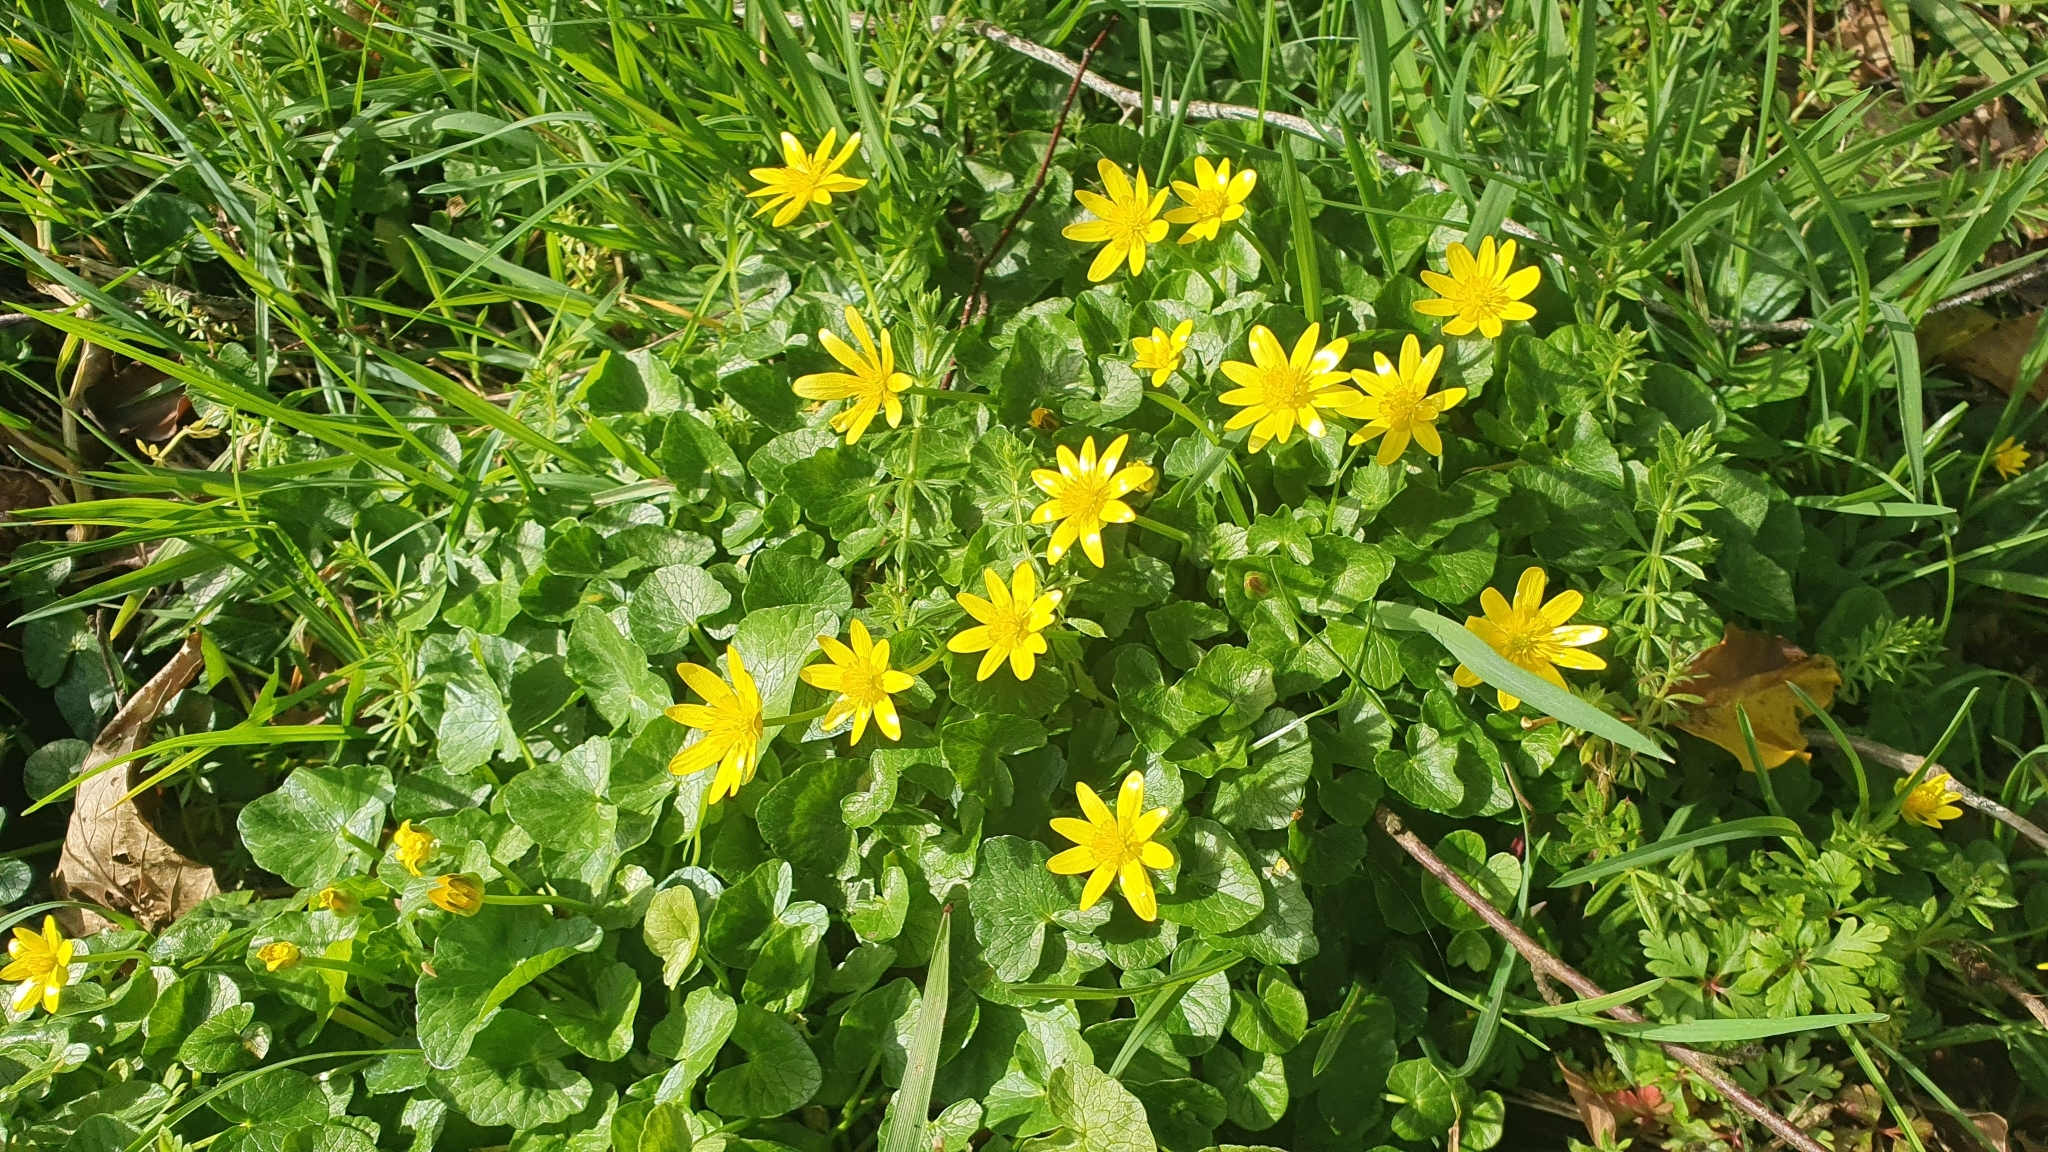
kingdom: Plantae
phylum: Tracheophyta
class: Magnoliopsida
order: Ranunculales
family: Ranunculaceae
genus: Ficaria
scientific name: Ficaria verna
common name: Lesser celandine
